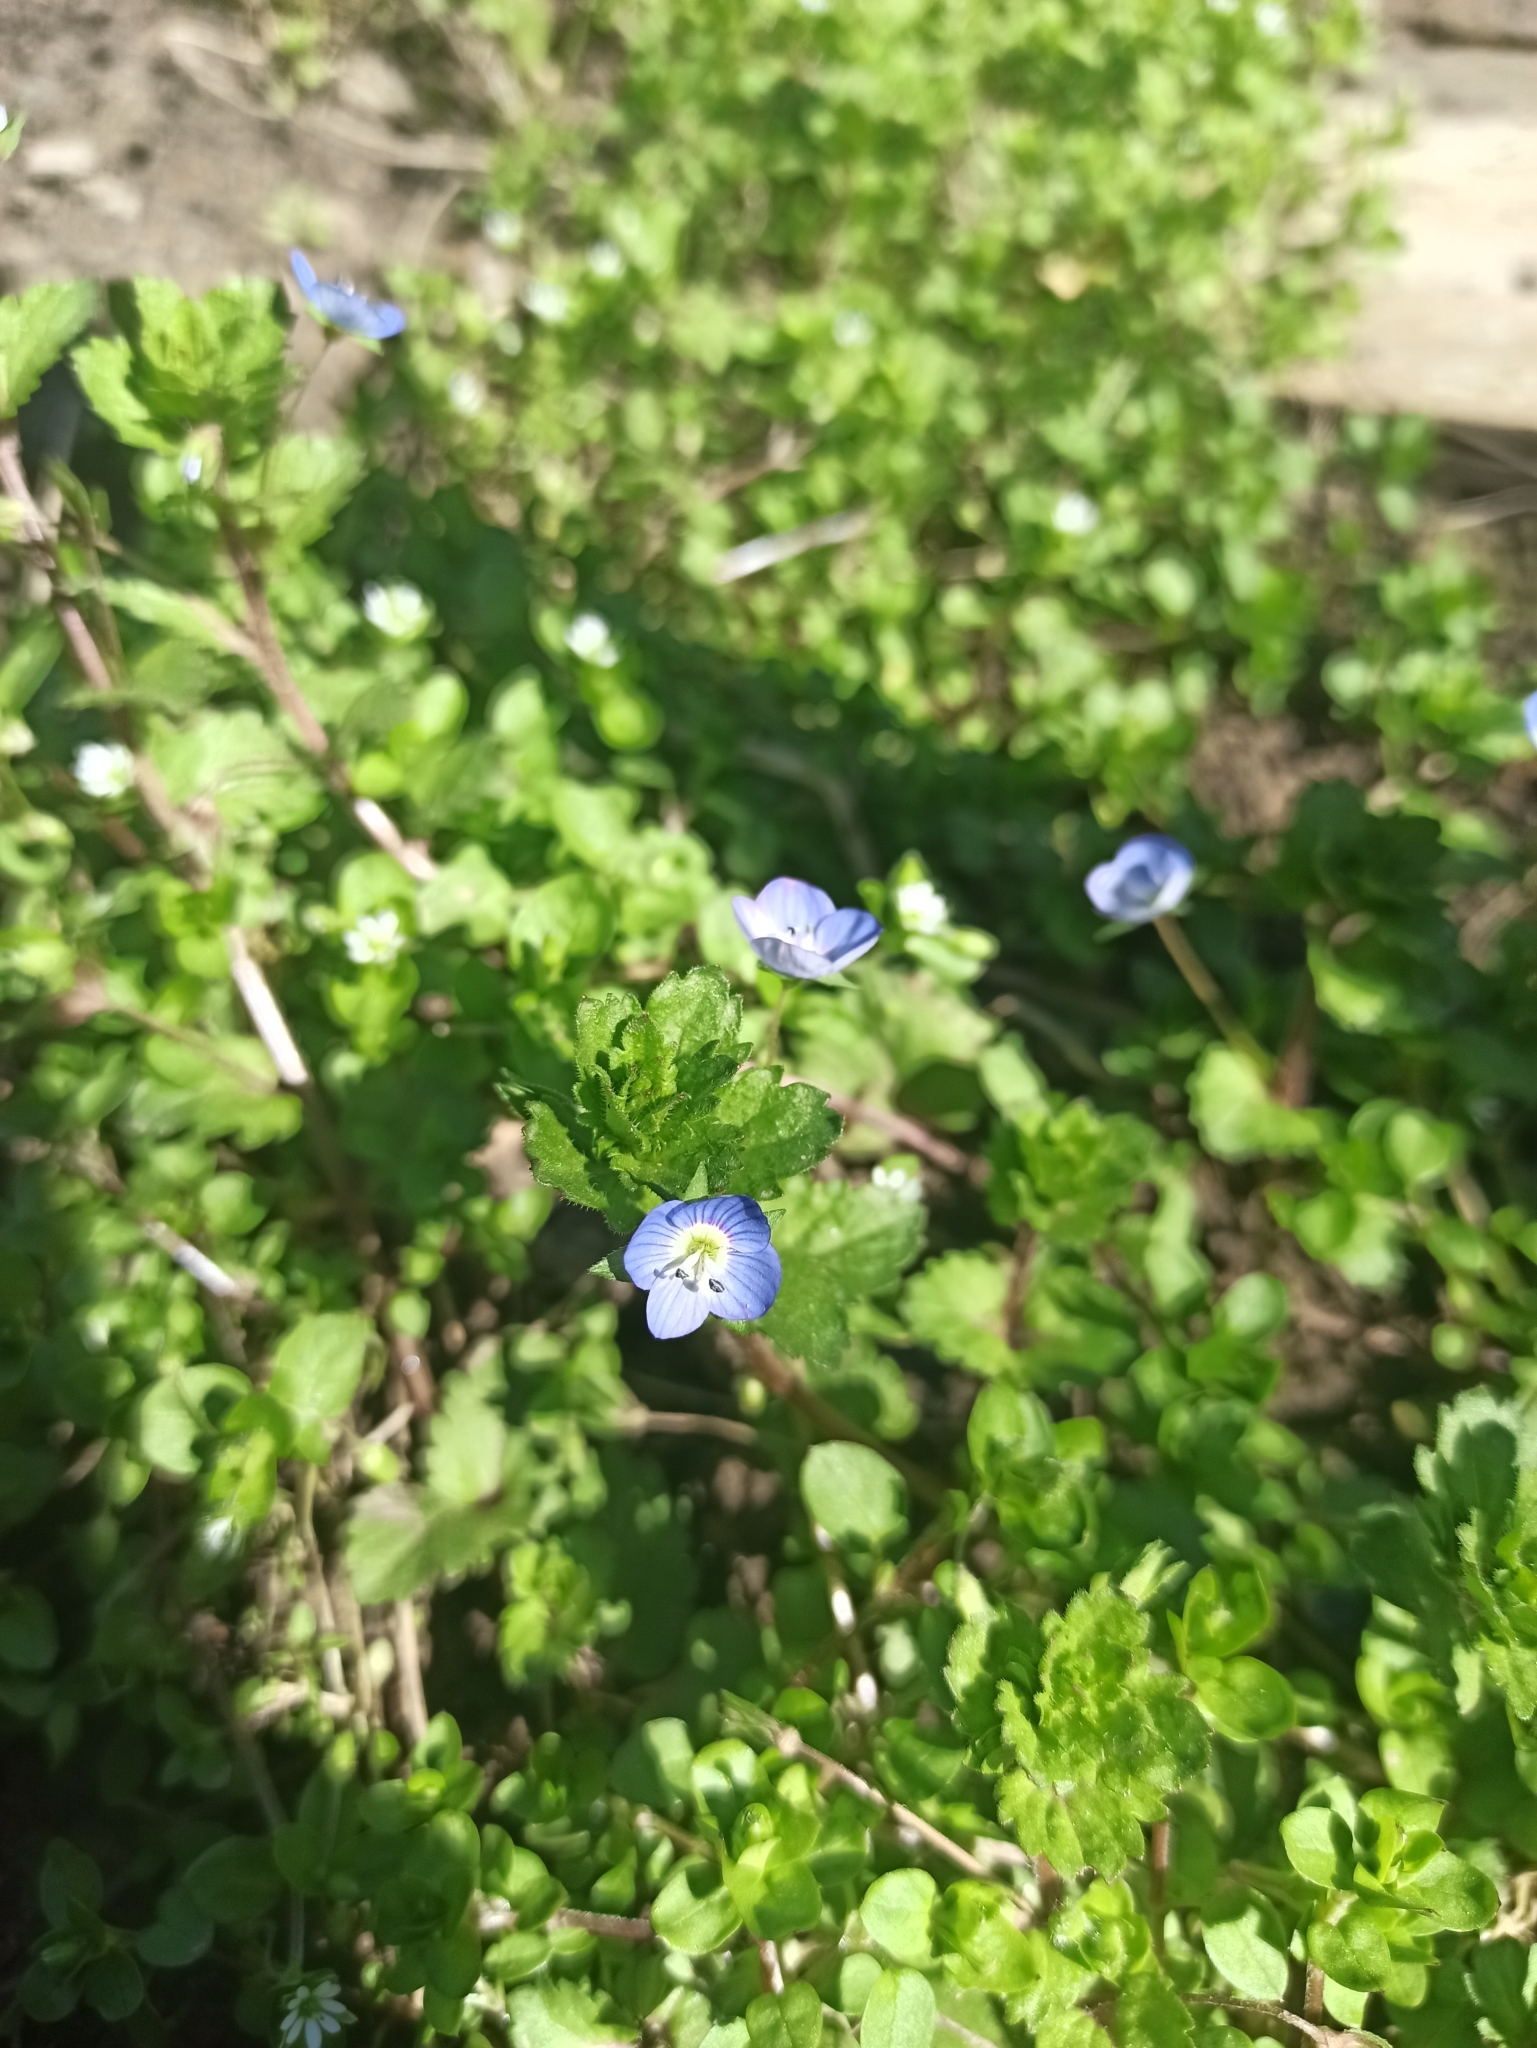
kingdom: Plantae
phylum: Tracheophyta
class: Magnoliopsida
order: Lamiales
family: Plantaginaceae
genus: Veronica
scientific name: Veronica persica
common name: Common field-speedwell
